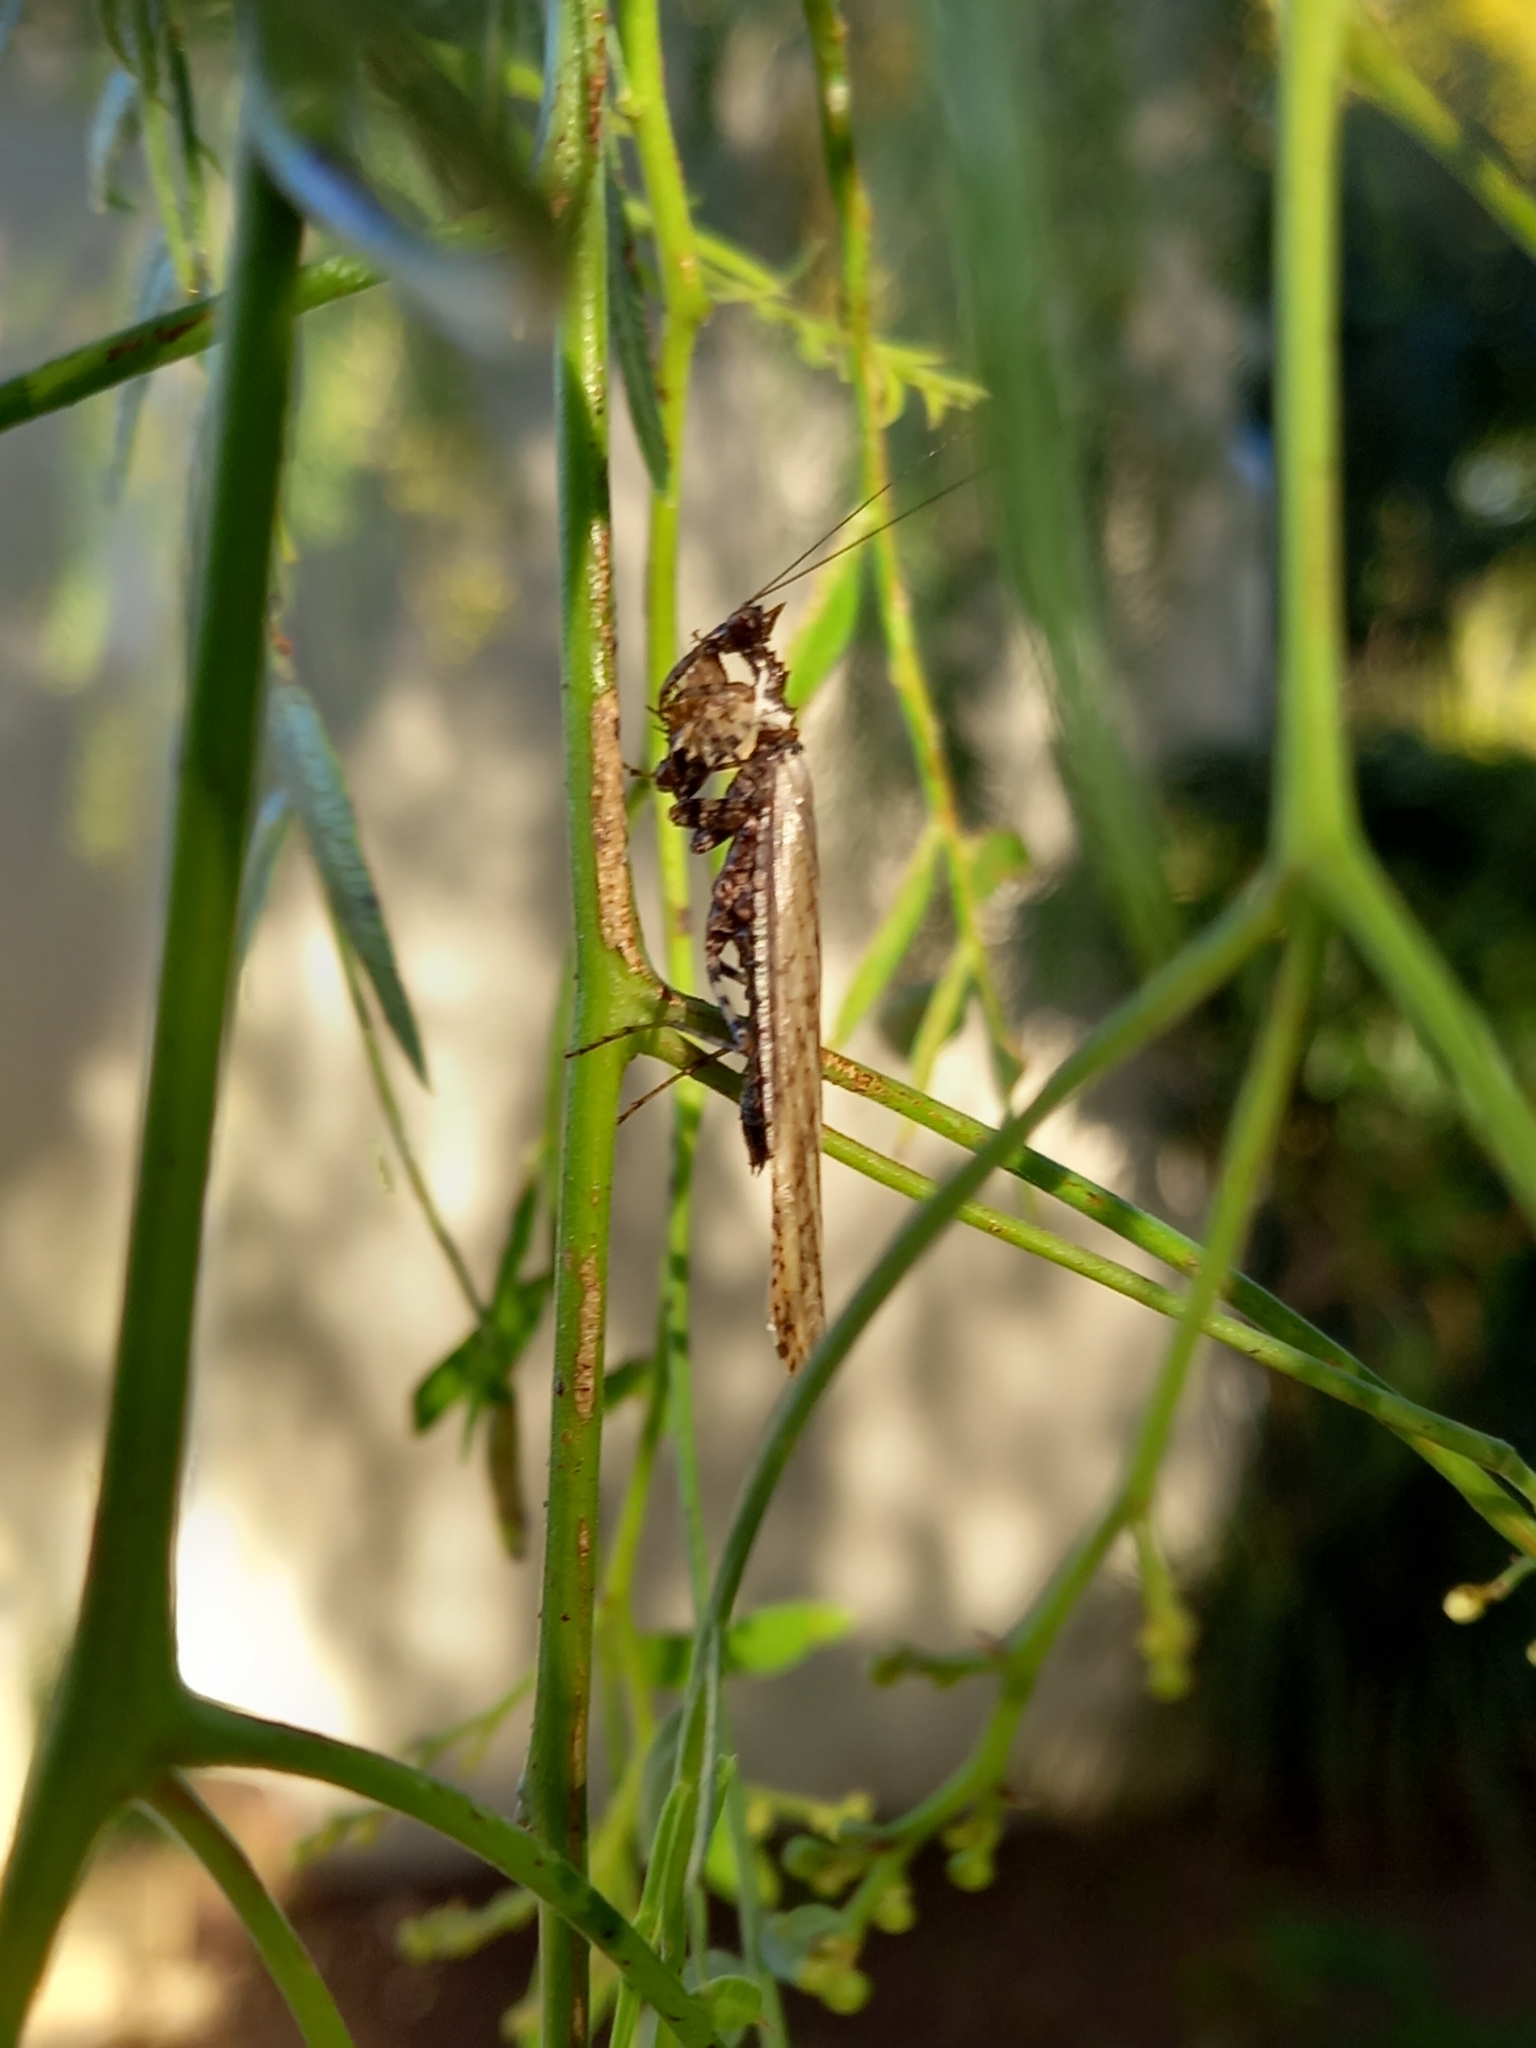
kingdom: Animalia
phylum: Arthropoda
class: Insecta
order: Mantodea
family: Hymenopodidae
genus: Oxypilus
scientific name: Oxypilus capensis
